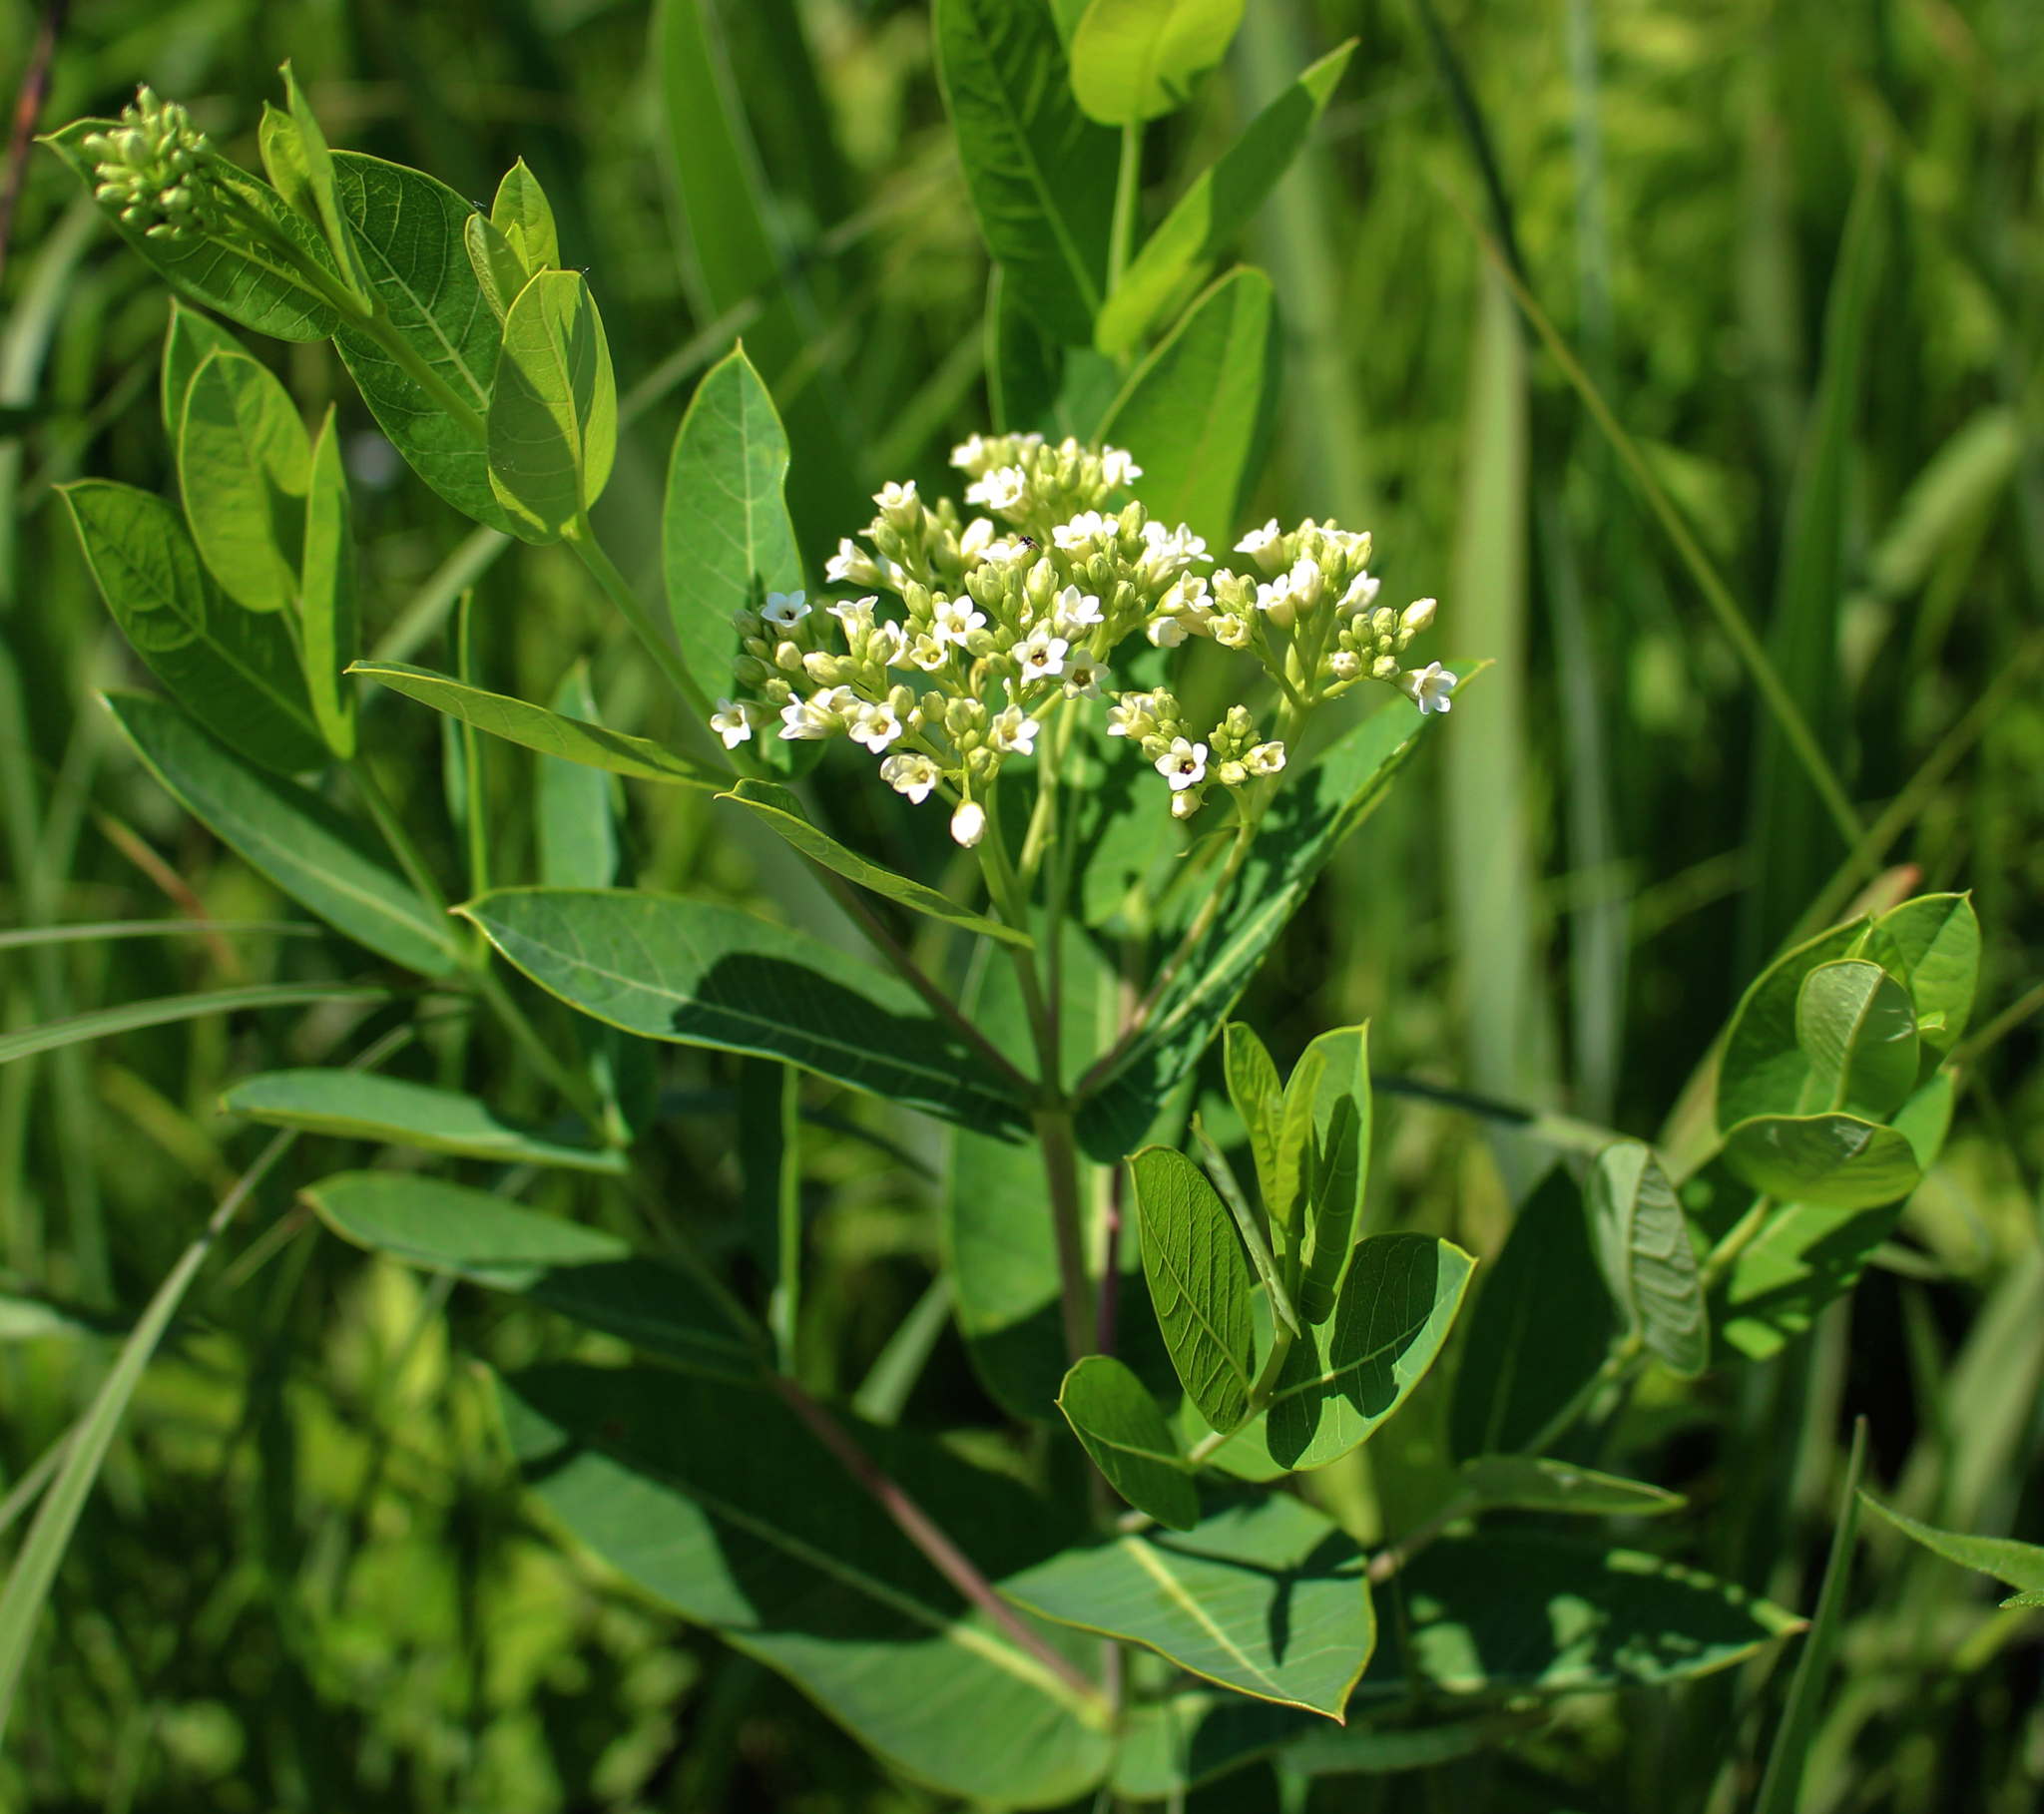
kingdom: Plantae
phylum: Tracheophyta
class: Magnoliopsida
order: Gentianales
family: Apocynaceae
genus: Apocynum
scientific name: Apocynum cannabinum
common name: Hemp dogbane
